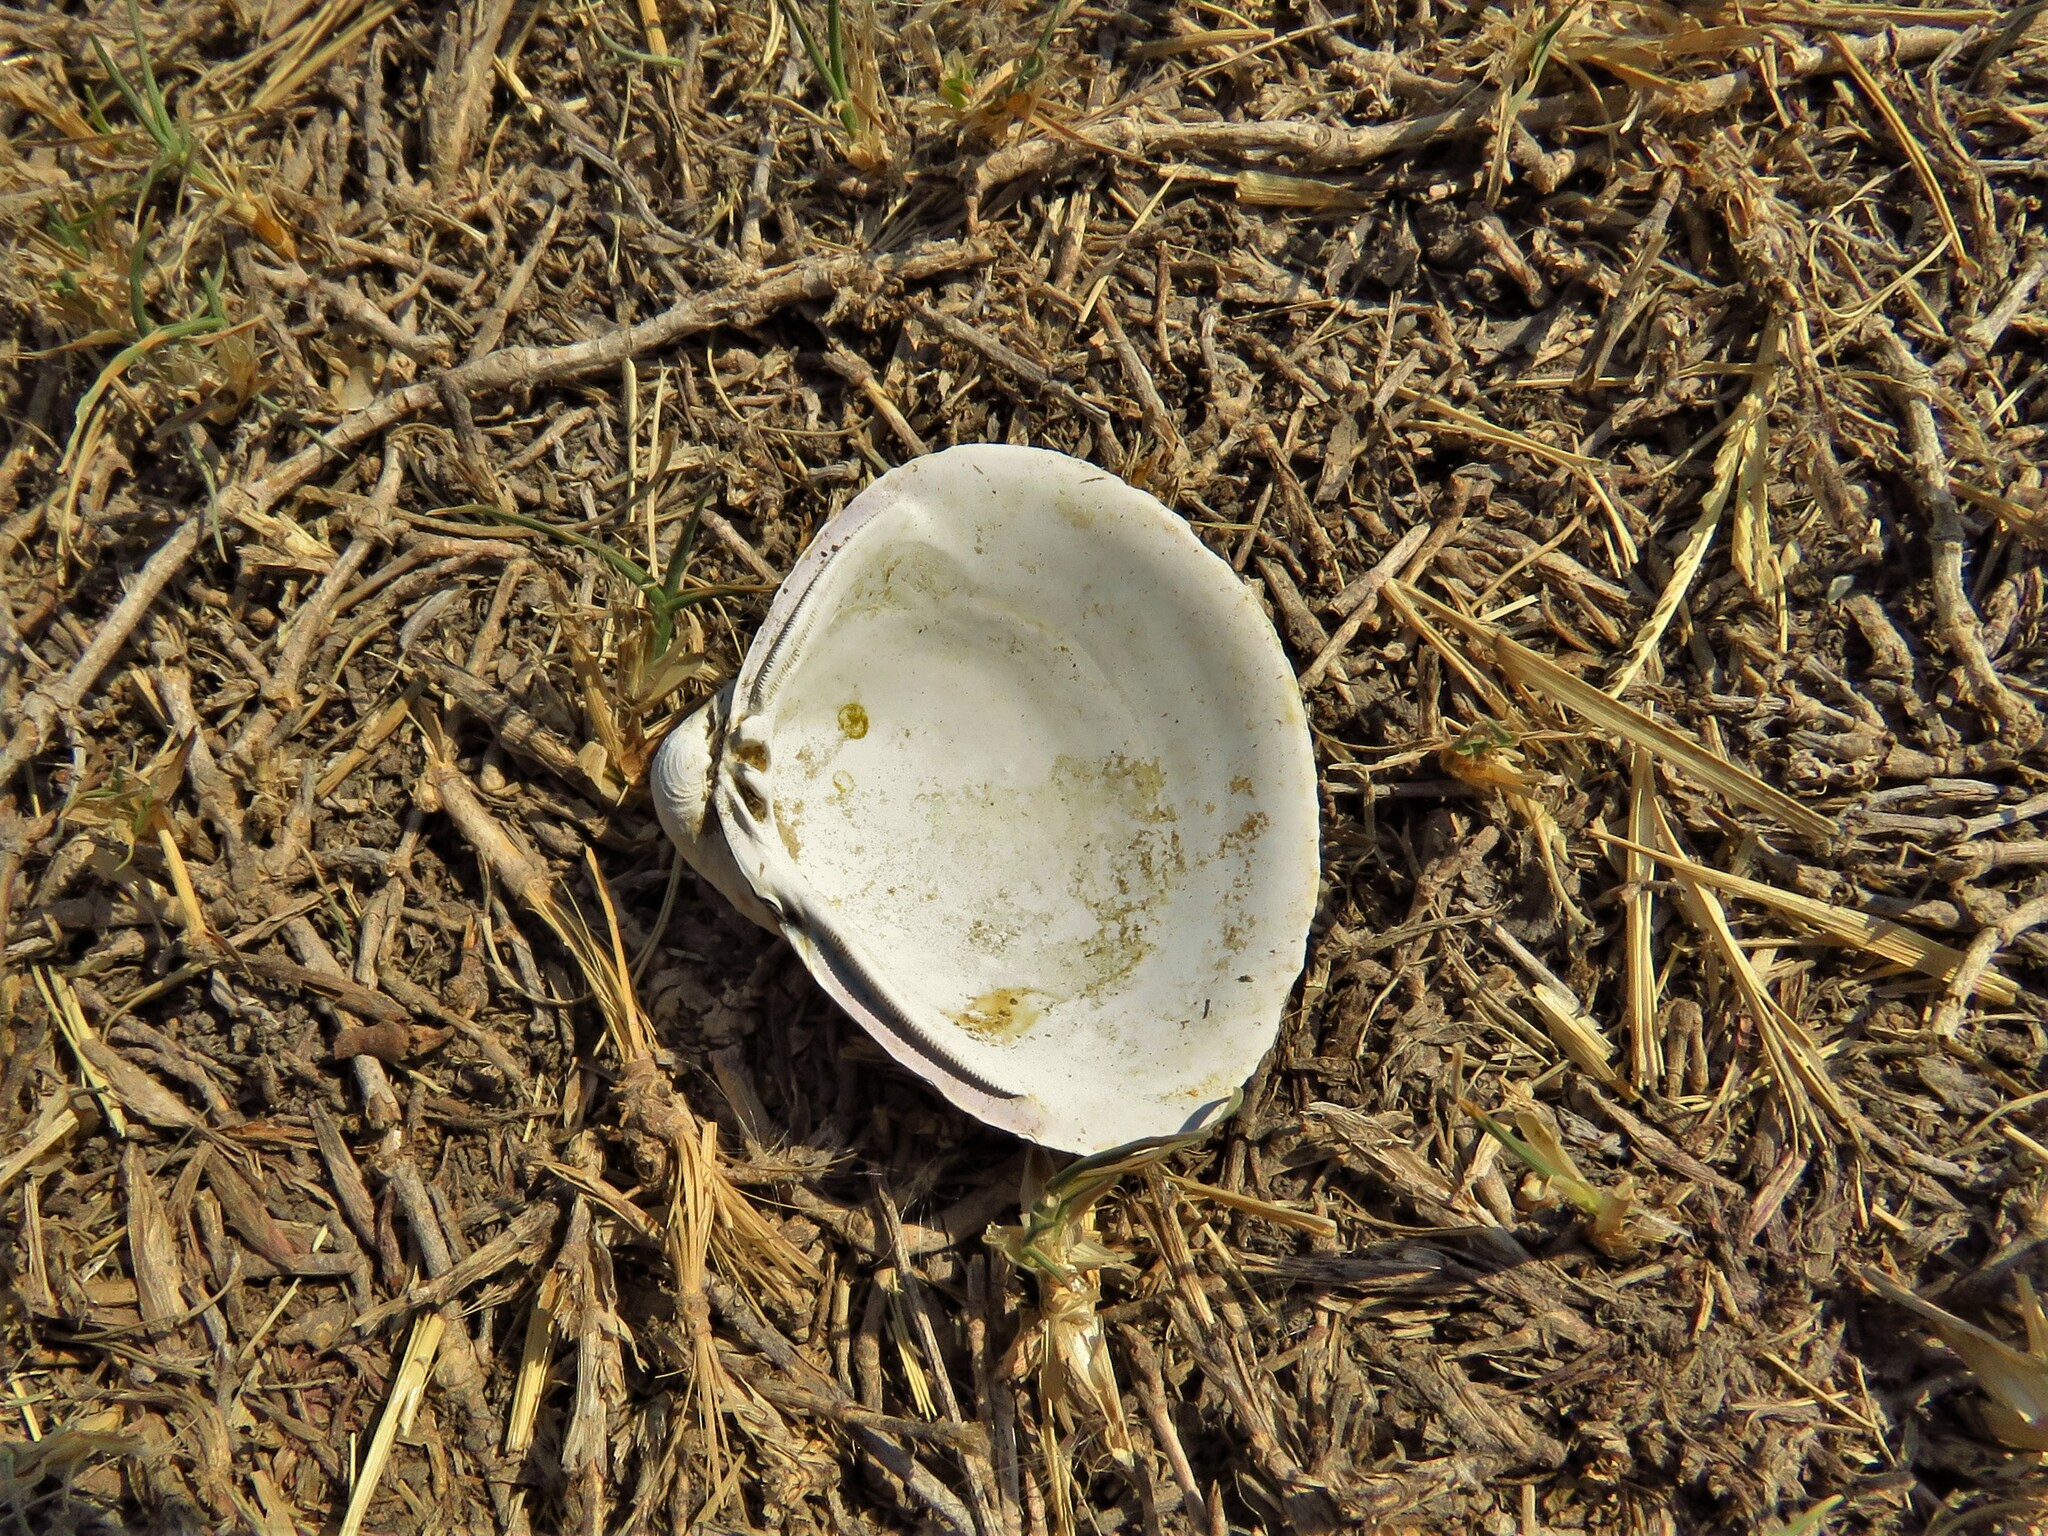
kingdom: Animalia
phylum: Mollusca
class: Bivalvia
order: Venerida
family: Cyrenidae
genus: Corbicula
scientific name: Corbicula fluminea
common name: Asian clam
